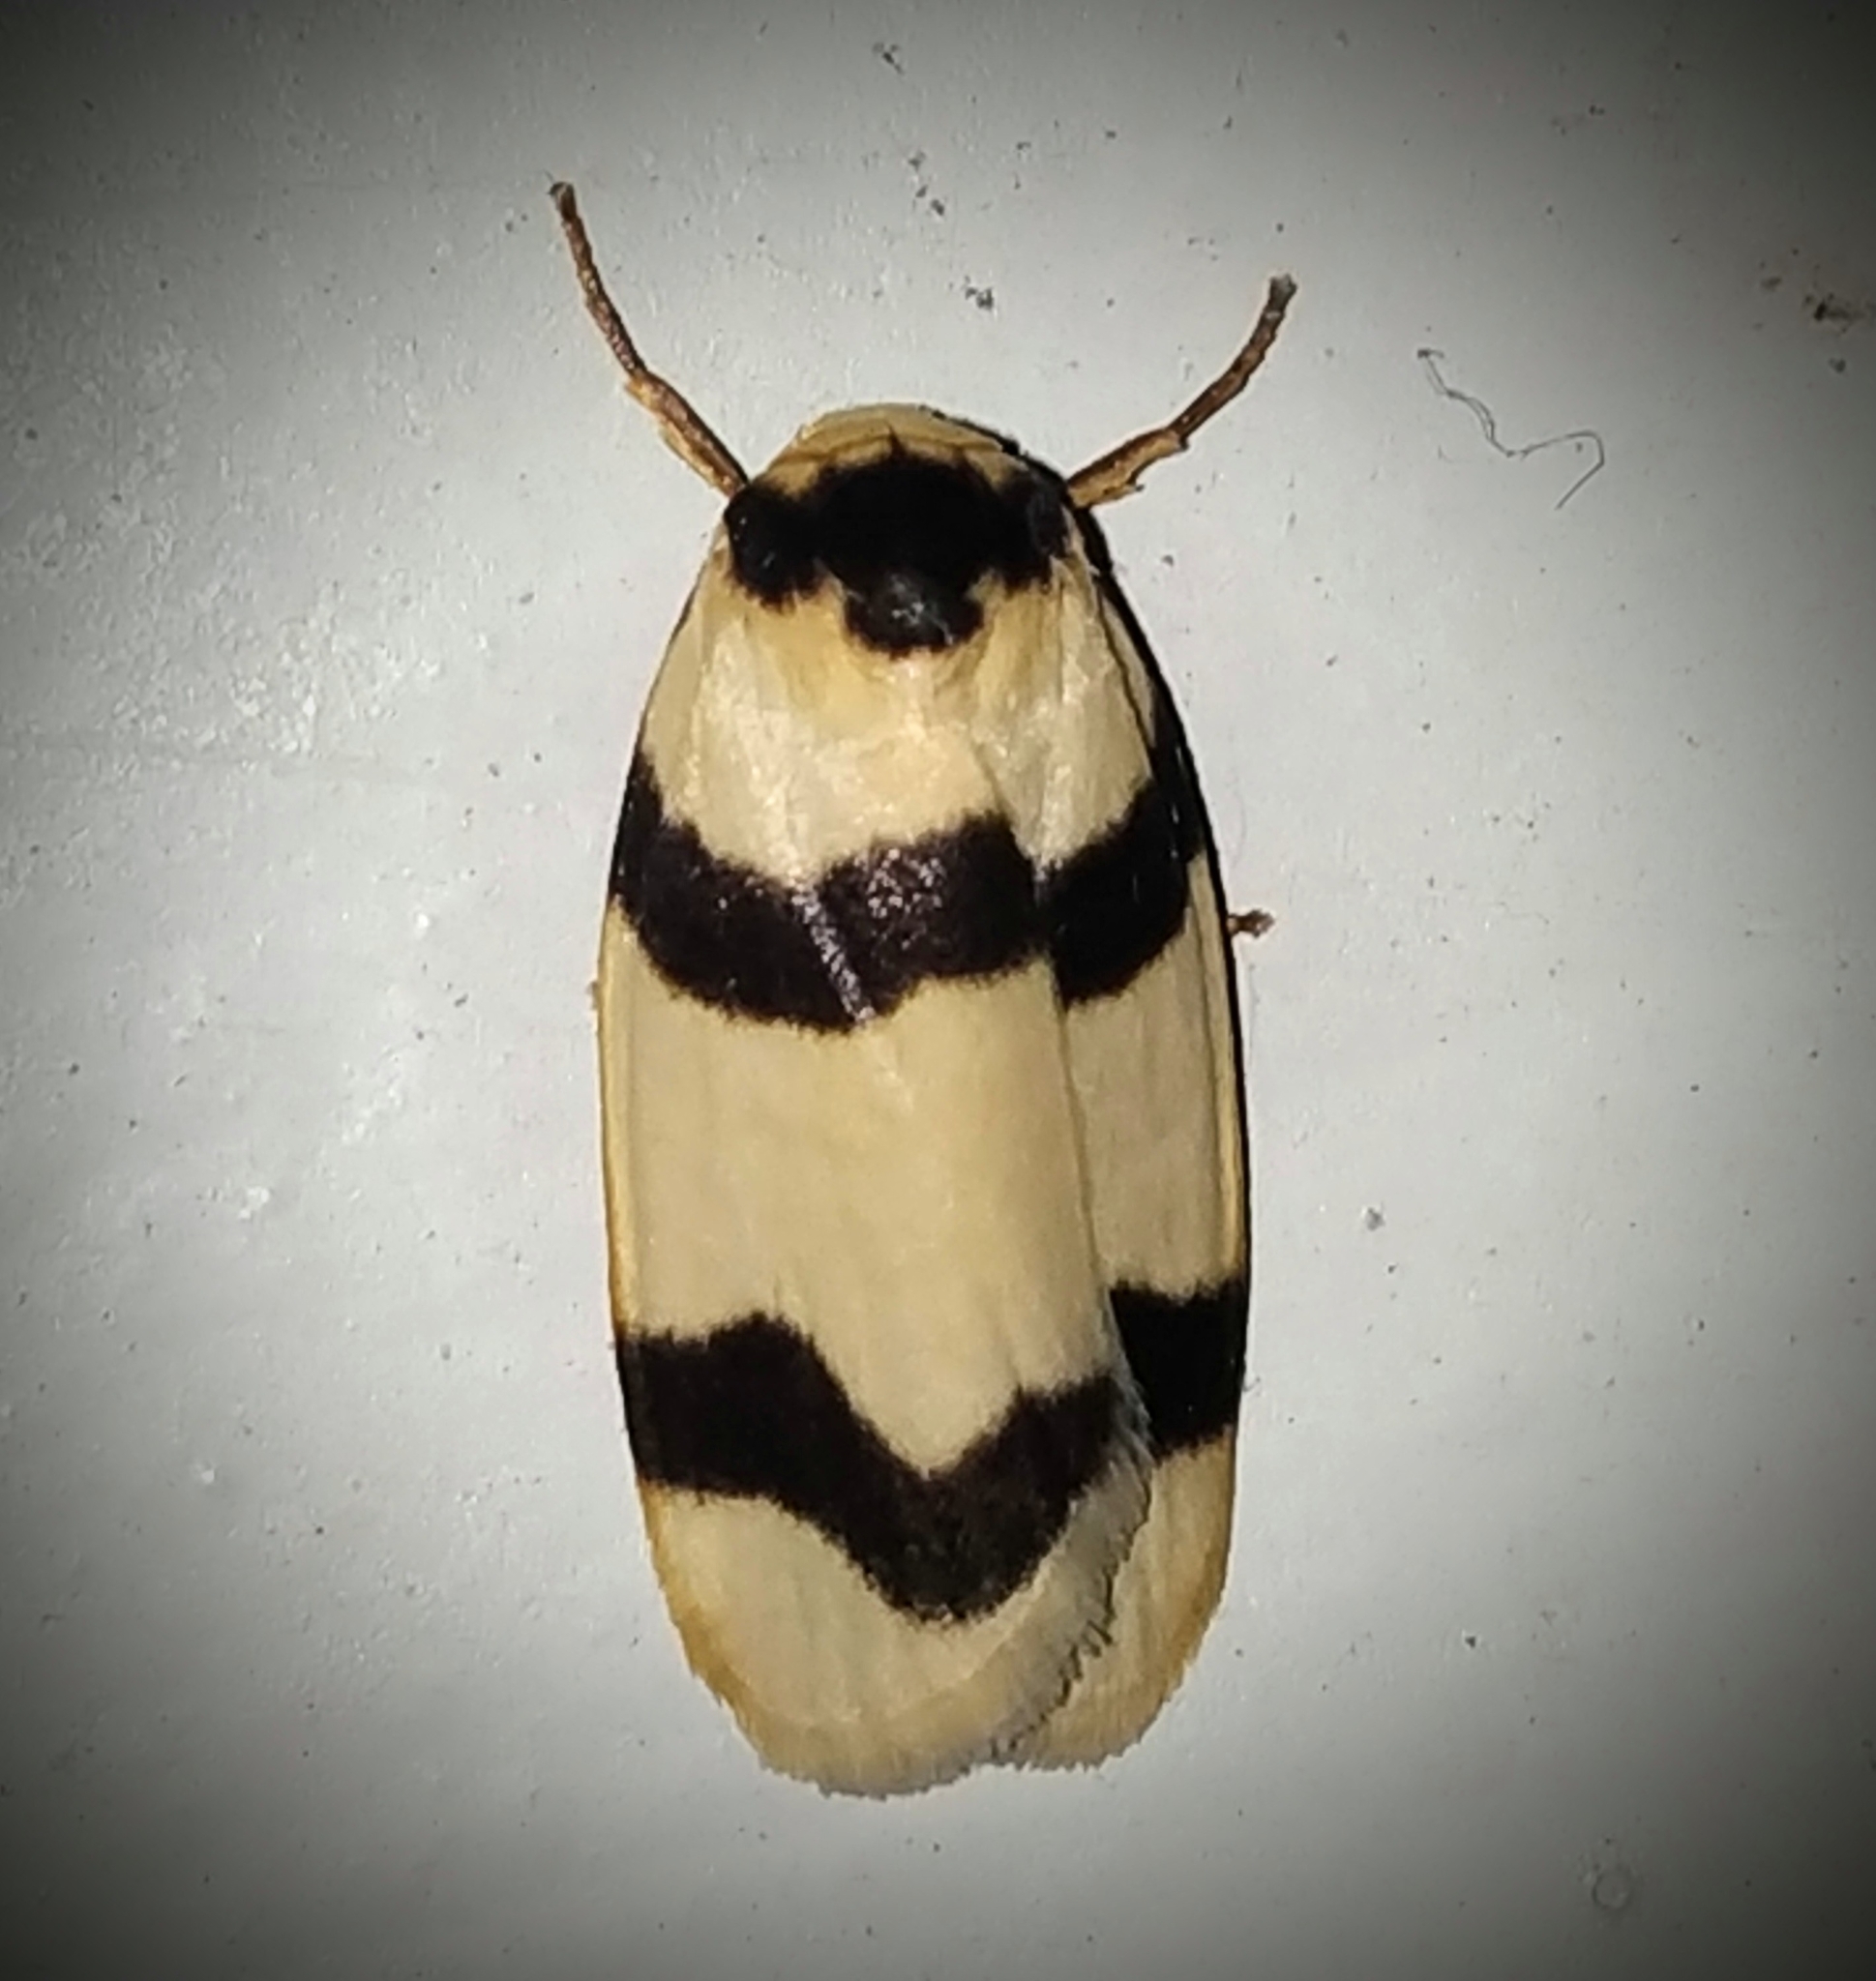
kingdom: Animalia
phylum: Arthropoda
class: Insecta
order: Lepidoptera
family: Erebidae
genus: Padenia
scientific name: Padenia transversa
